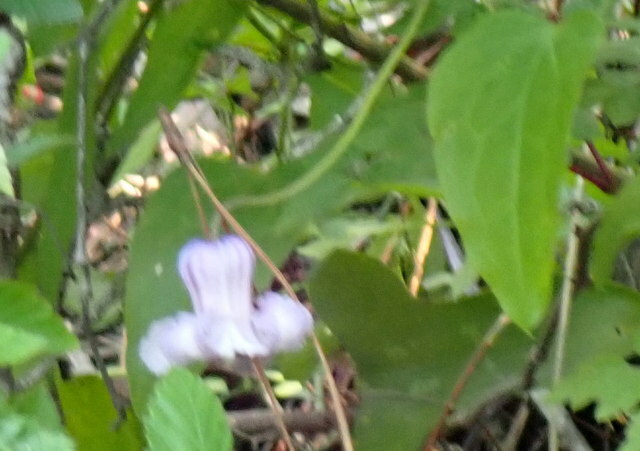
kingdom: Plantae
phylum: Tracheophyta
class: Magnoliopsida
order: Ranunculales
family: Ranunculaceae
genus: Clematis
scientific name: Clematis crispa
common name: Curly clematis
